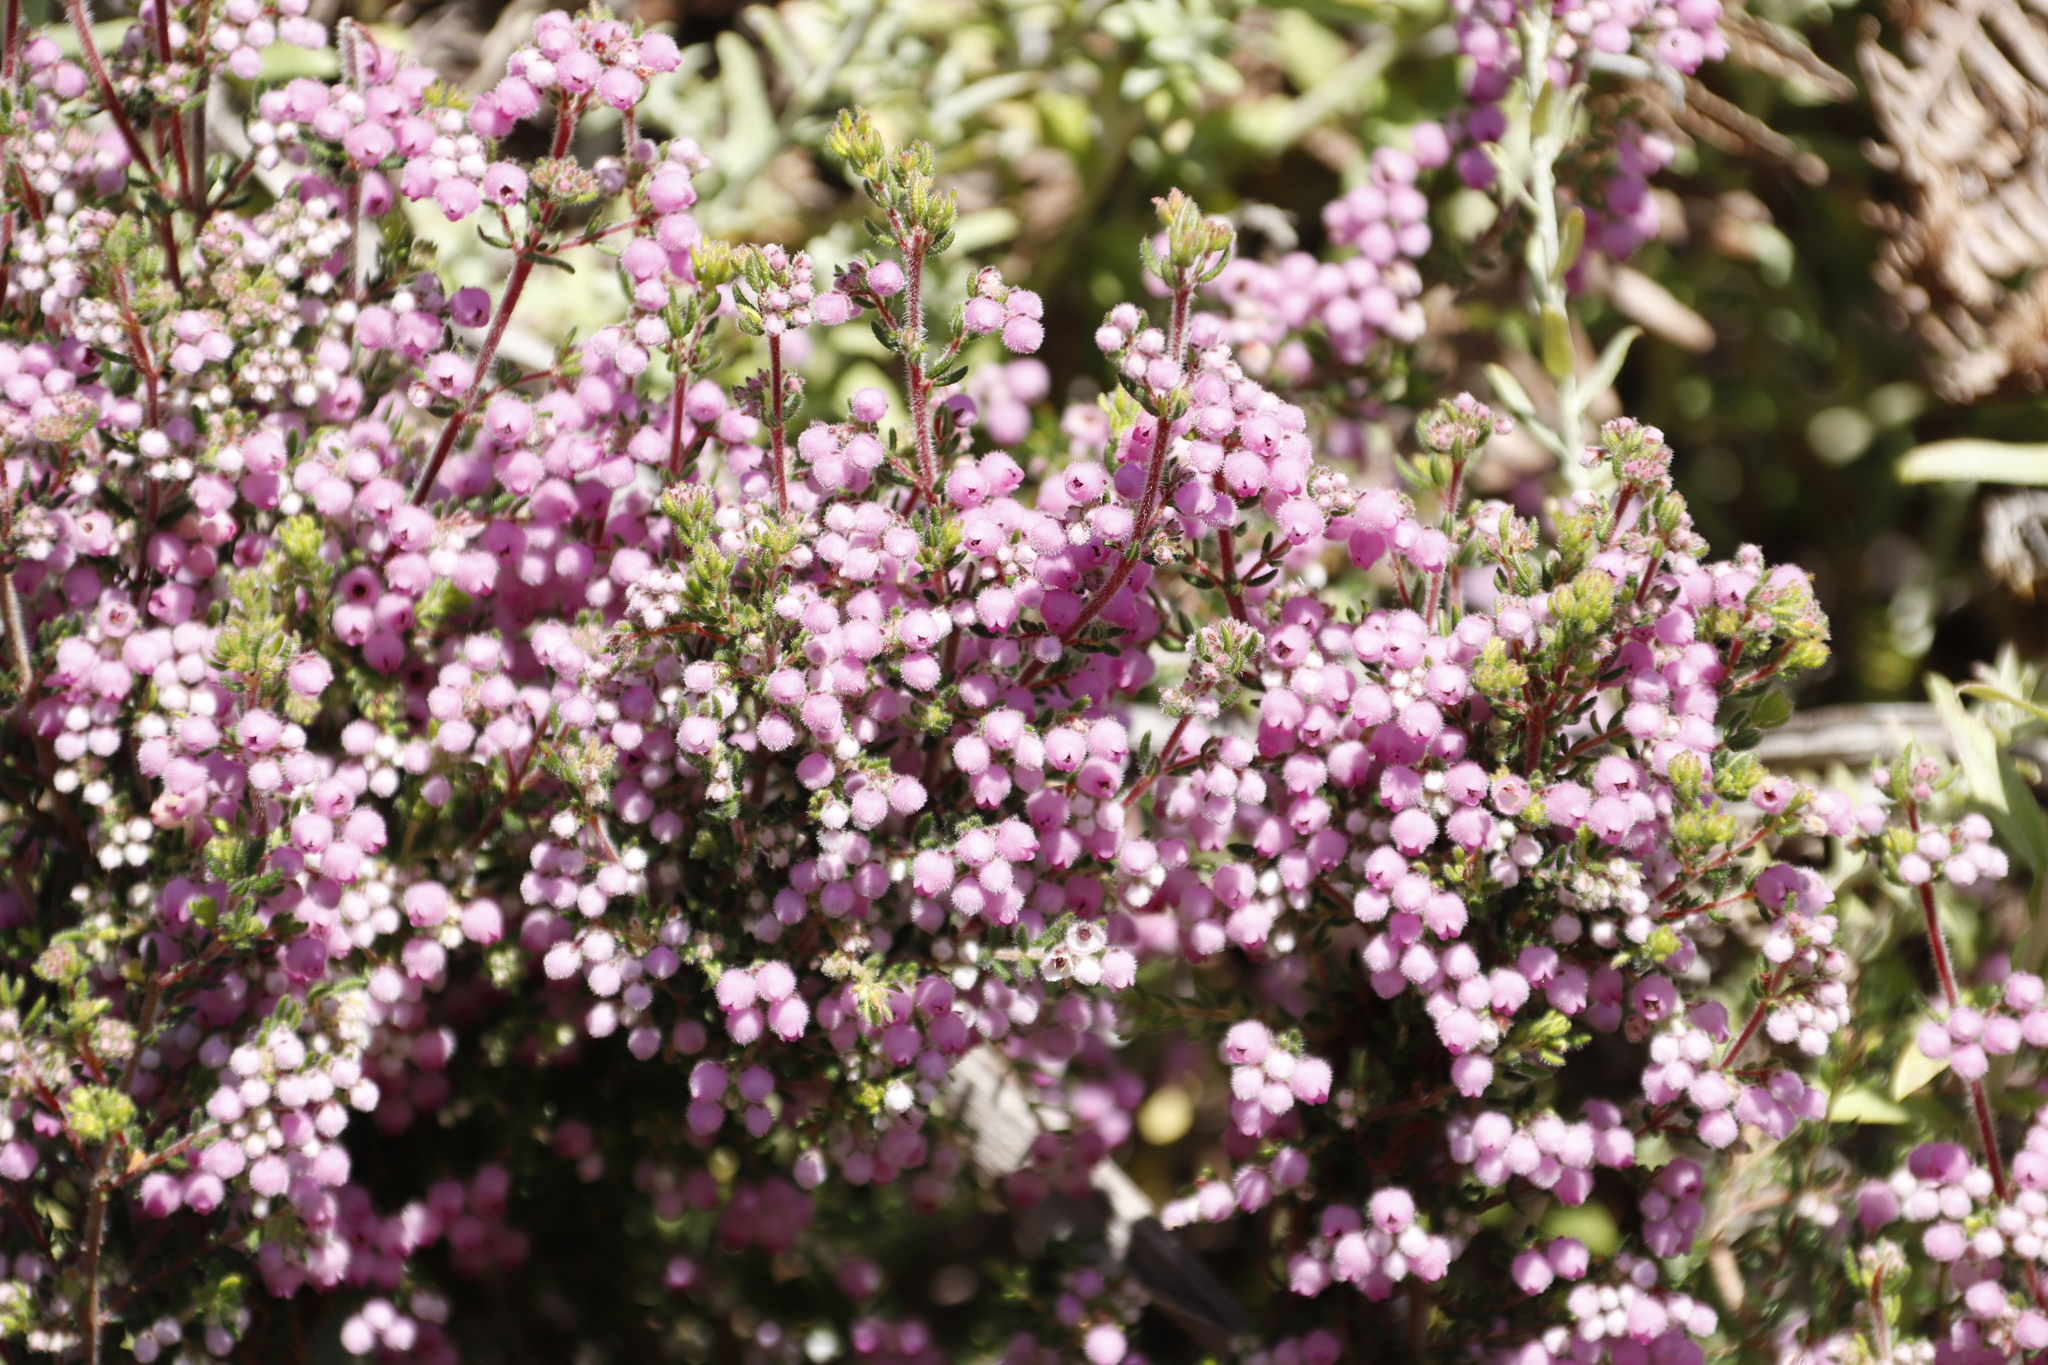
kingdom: Plantae
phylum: Tracheophyta
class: Magnoliopsida
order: Ericales
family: Ericaceae
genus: Erica
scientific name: Erica hirtiflora
